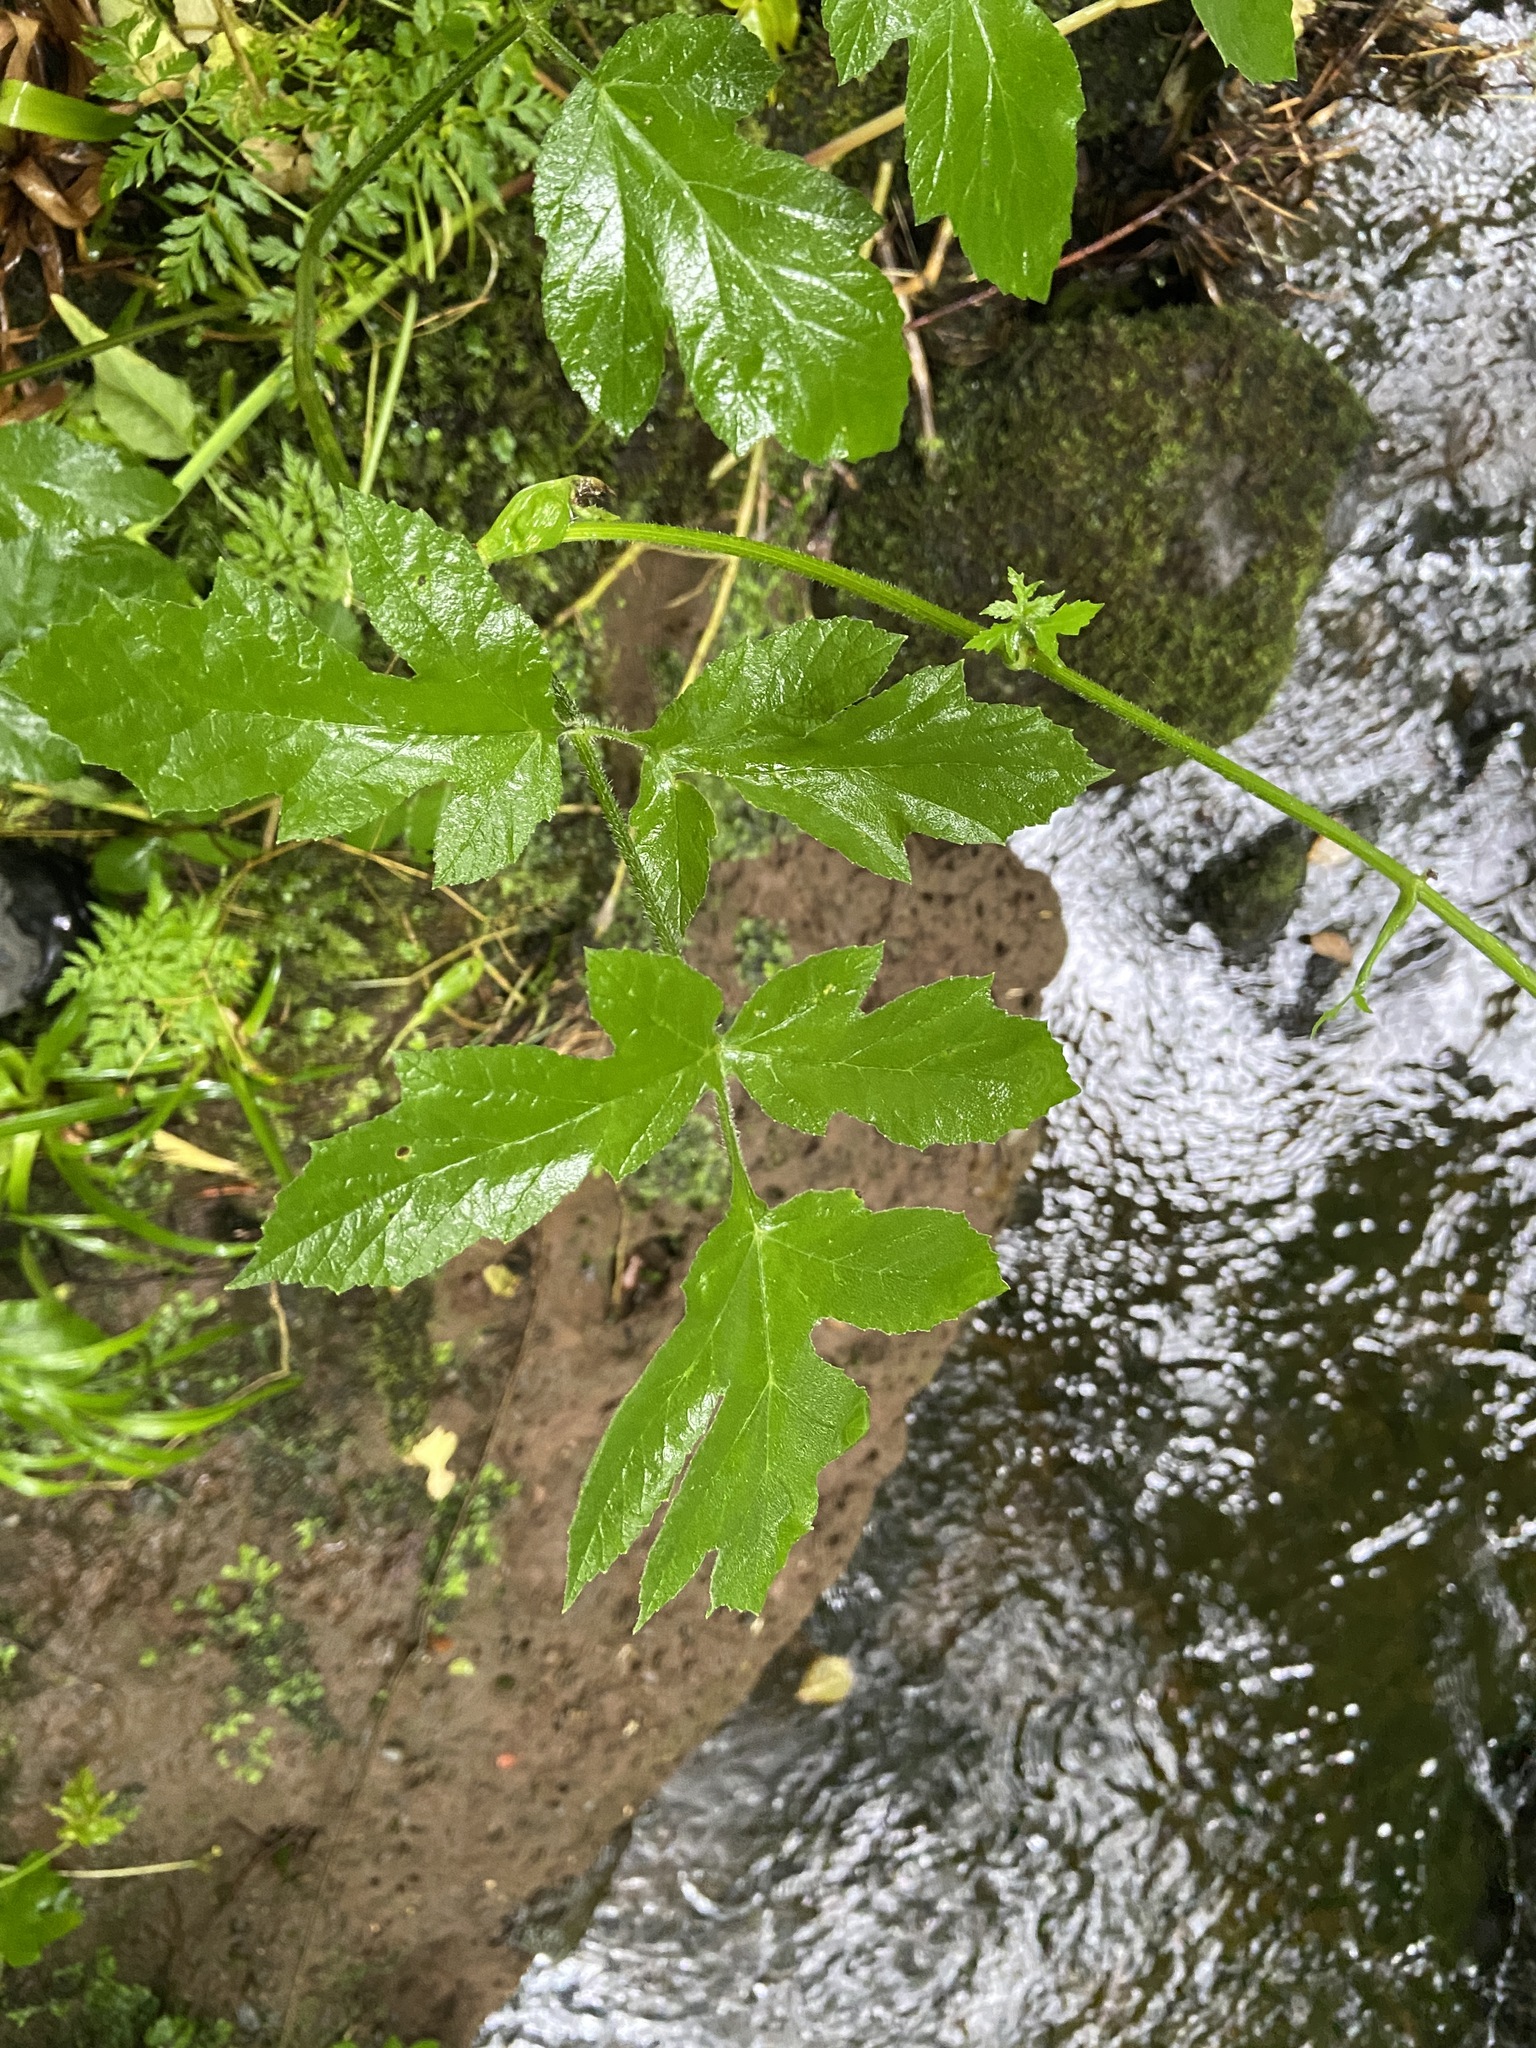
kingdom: Plantae
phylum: Tracheophyta
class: Magnoliopsida
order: Apiales
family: Apiaceae
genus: Heracleum
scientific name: Heracleum sphondylium
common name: Hogweed
